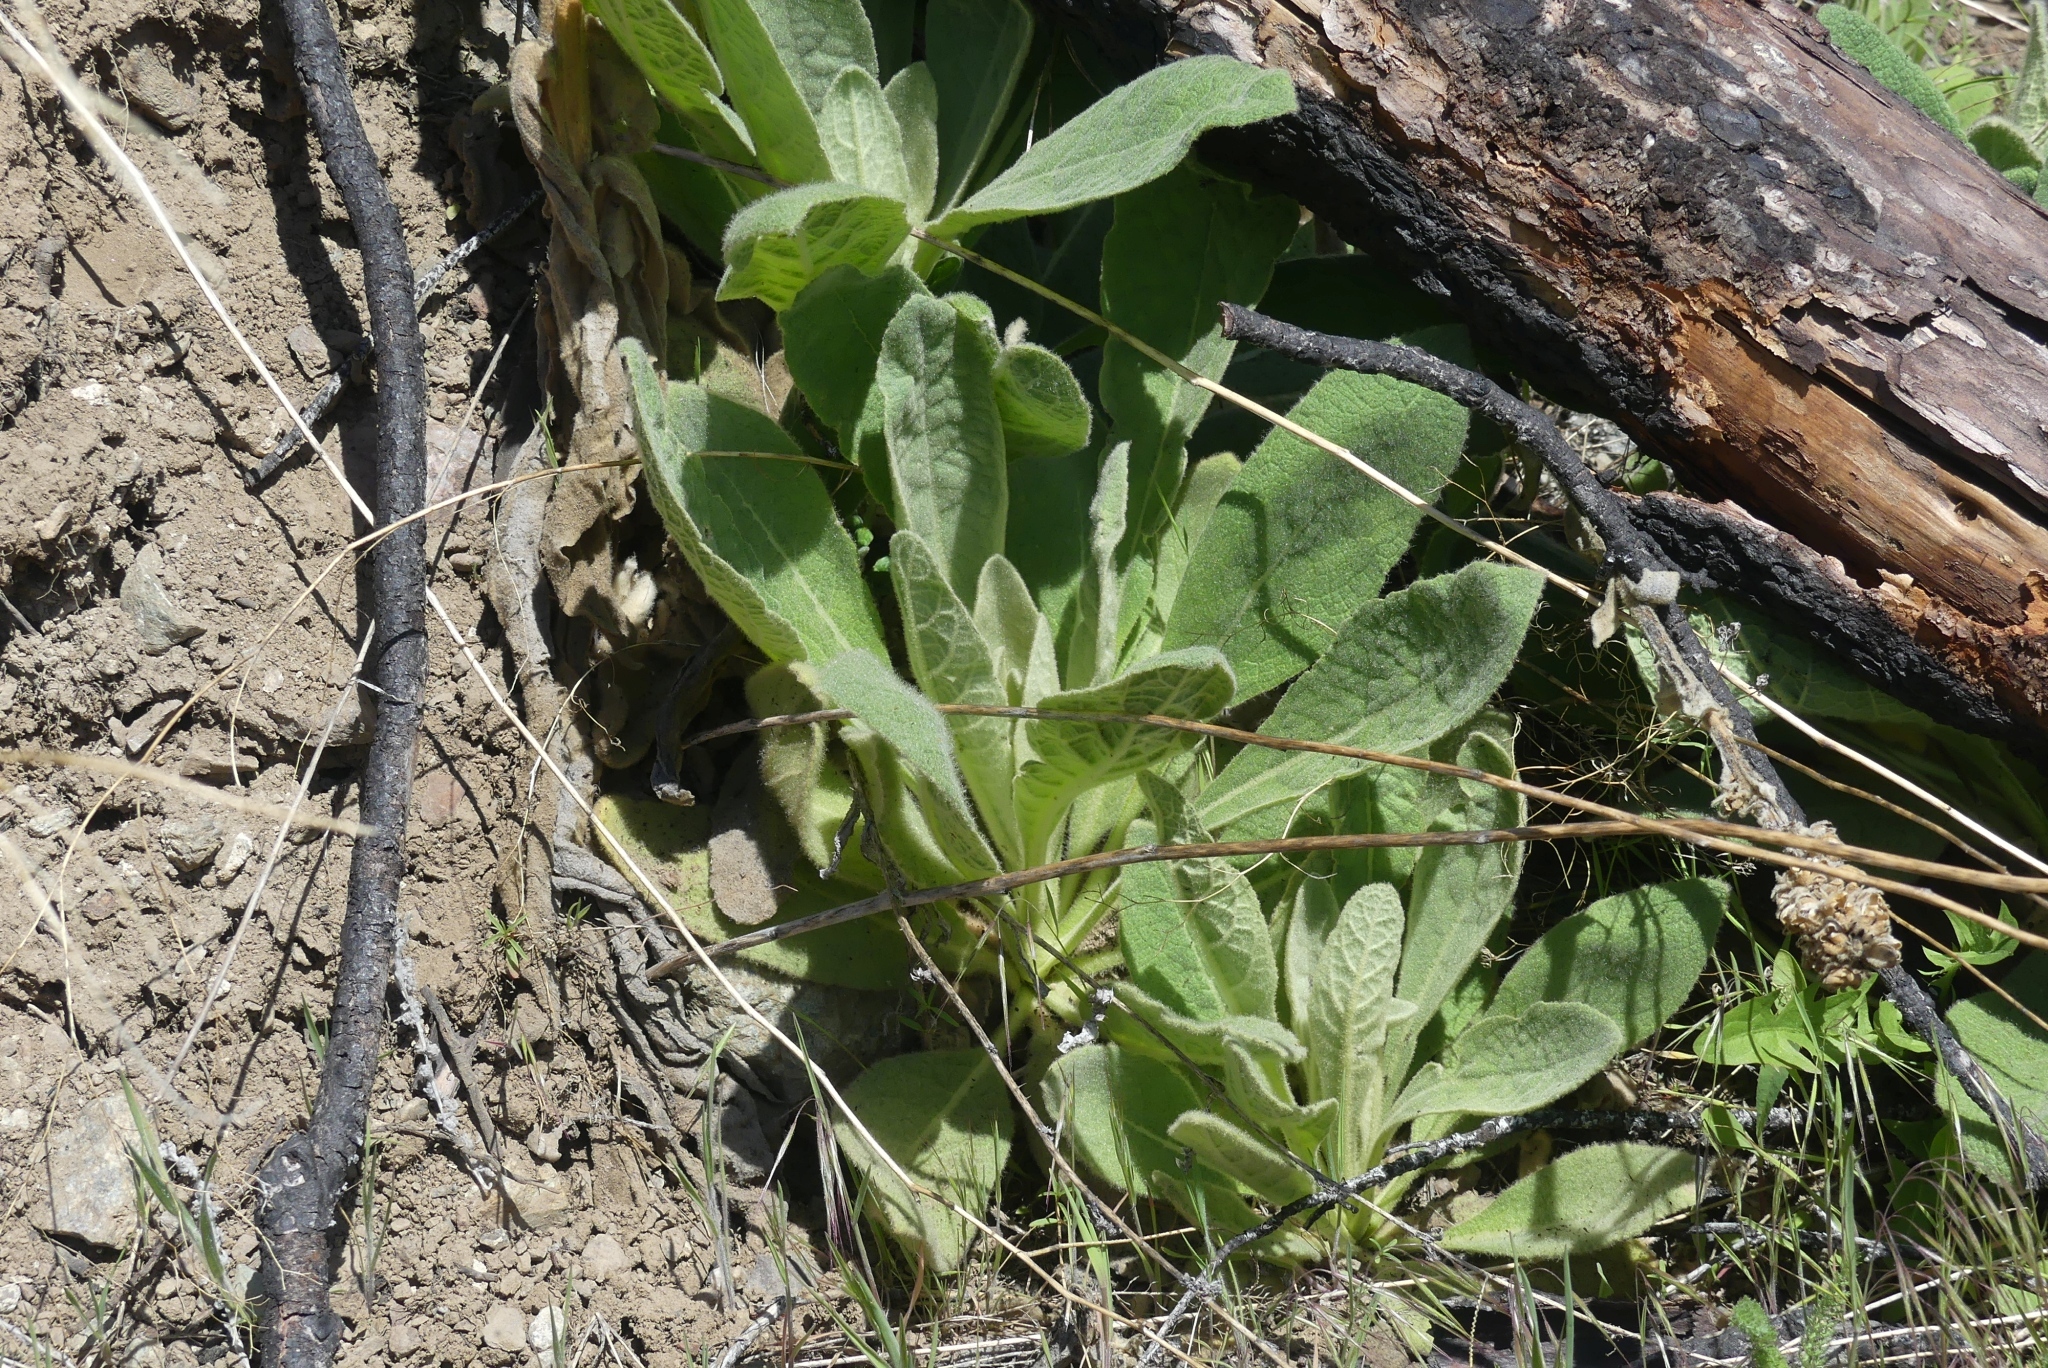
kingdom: Plantae
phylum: Tracheophyta
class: Magnoliopsida
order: Lamiales
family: Scrophulariaceae
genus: Verbascum
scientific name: Verbascum thapsus
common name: Common mullein
